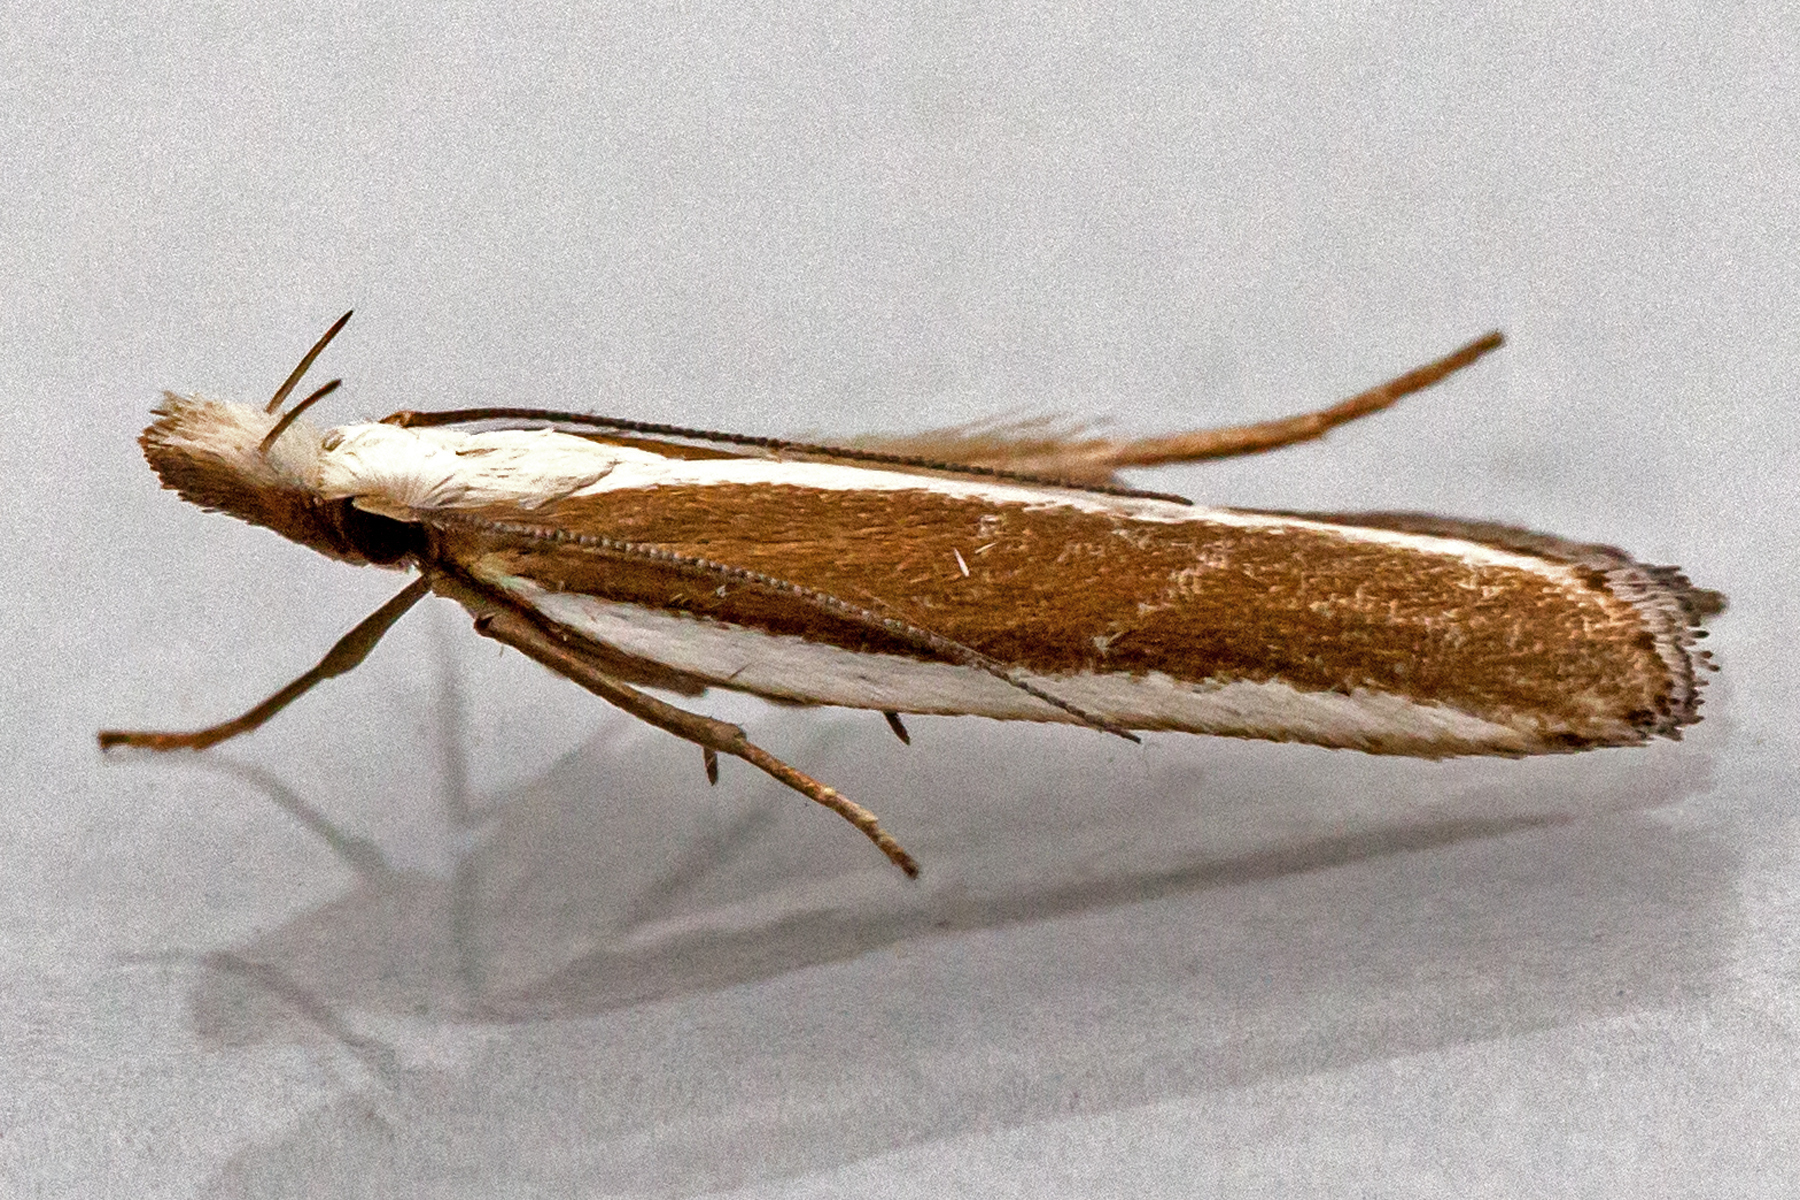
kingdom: Animalia
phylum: Arthropoda
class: Insecta
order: Lepidoptera
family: Gelechiidae
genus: Dichomeris
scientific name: Dichomeris marginella
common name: Juniper webworm
